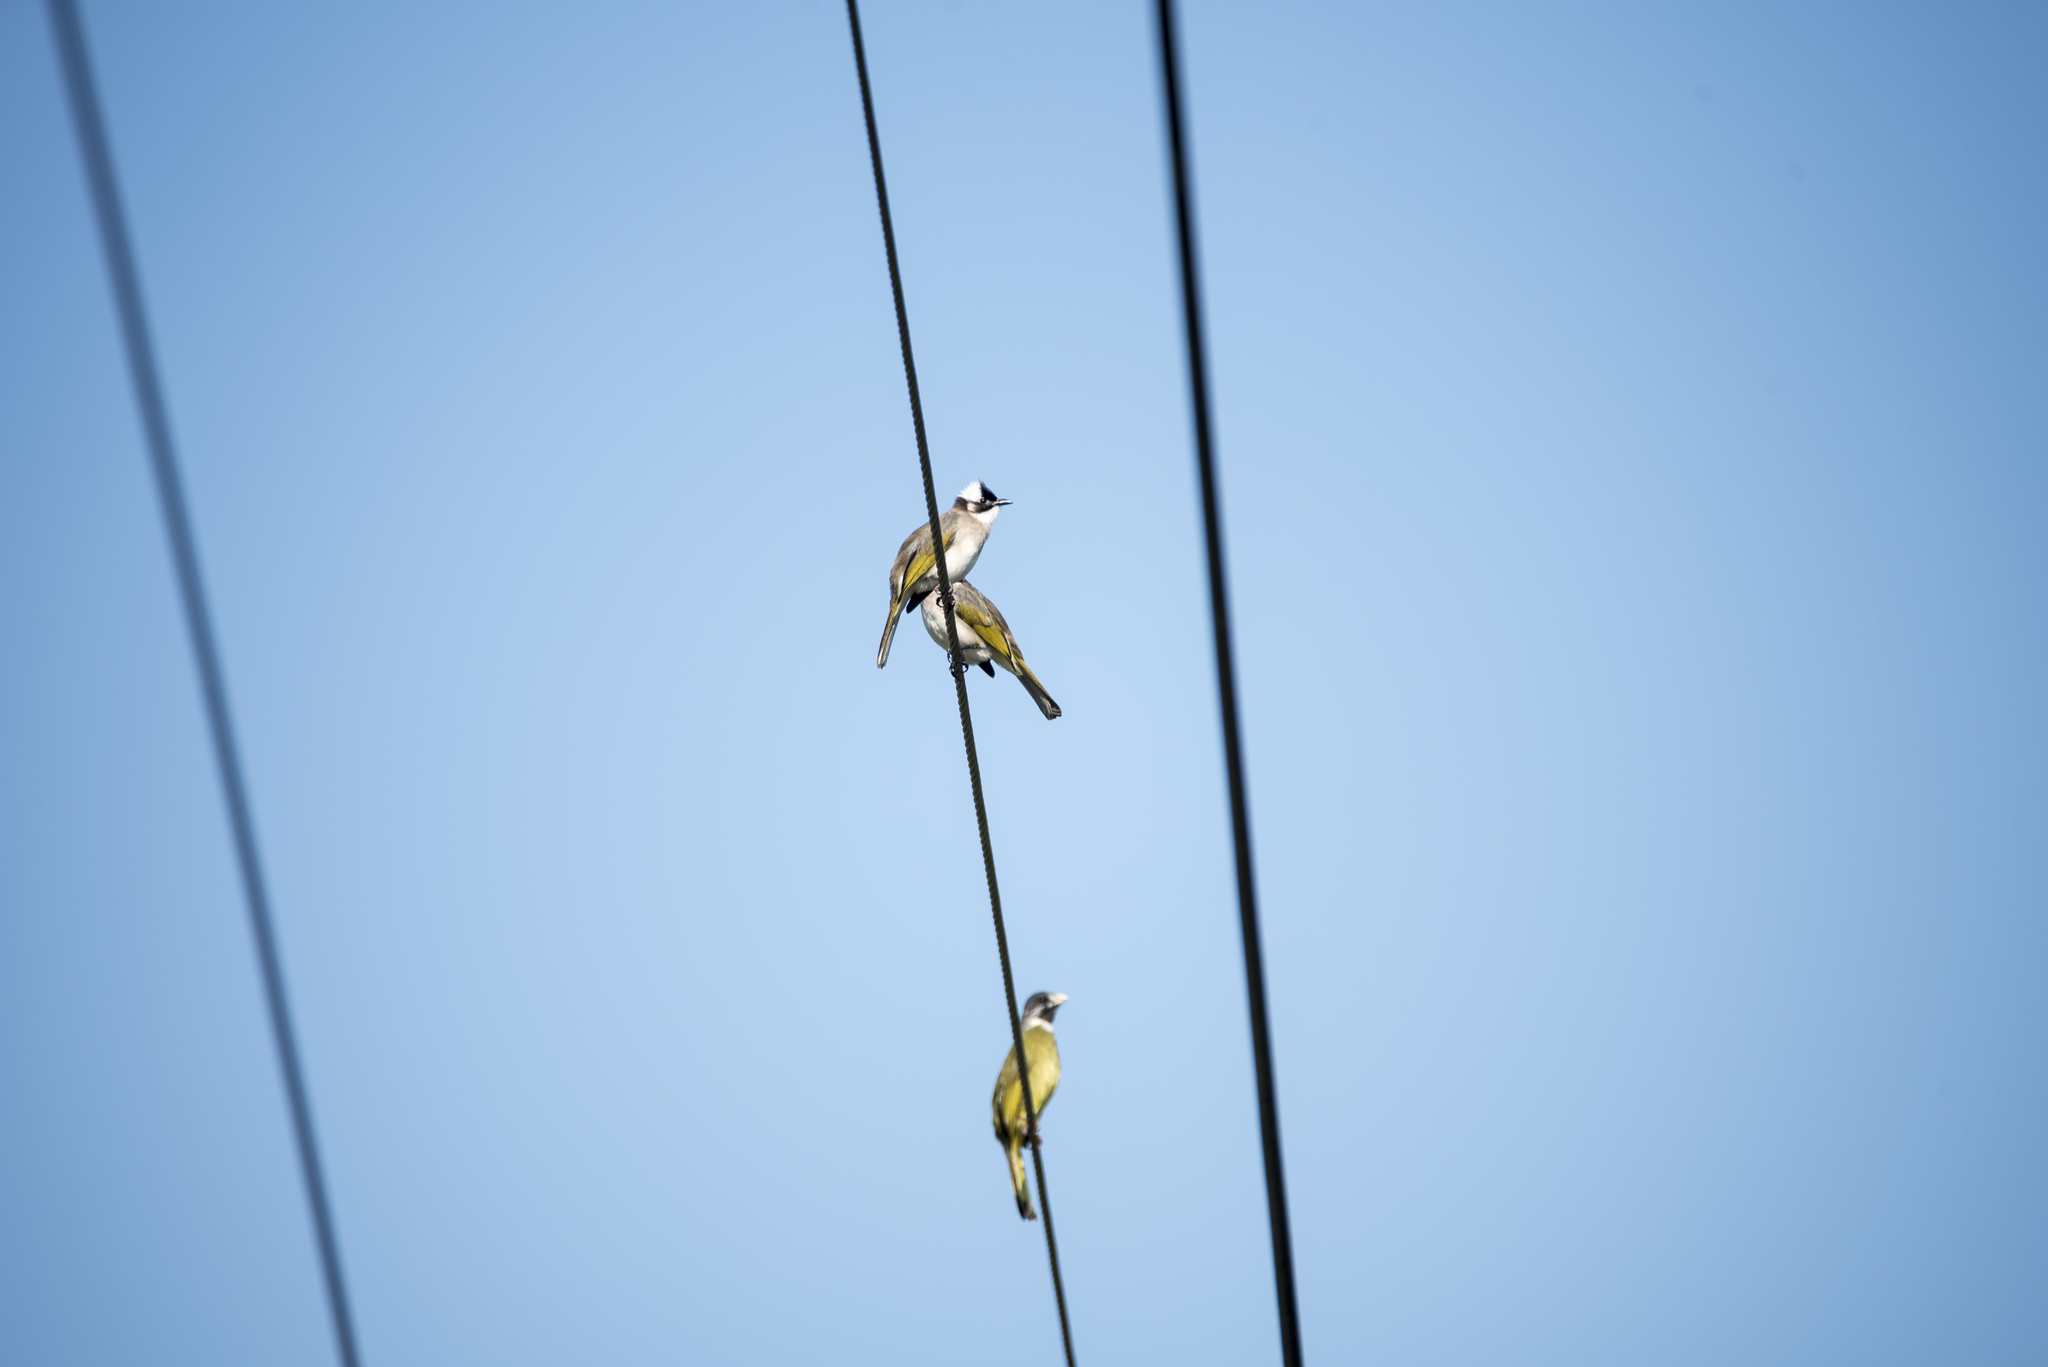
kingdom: Animalia
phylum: Chordata
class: Aves
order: Passeriformes
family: Pycnonotidae
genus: Pycnonotus
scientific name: Pycnonotus sinensis
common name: Light-vented bulbul
